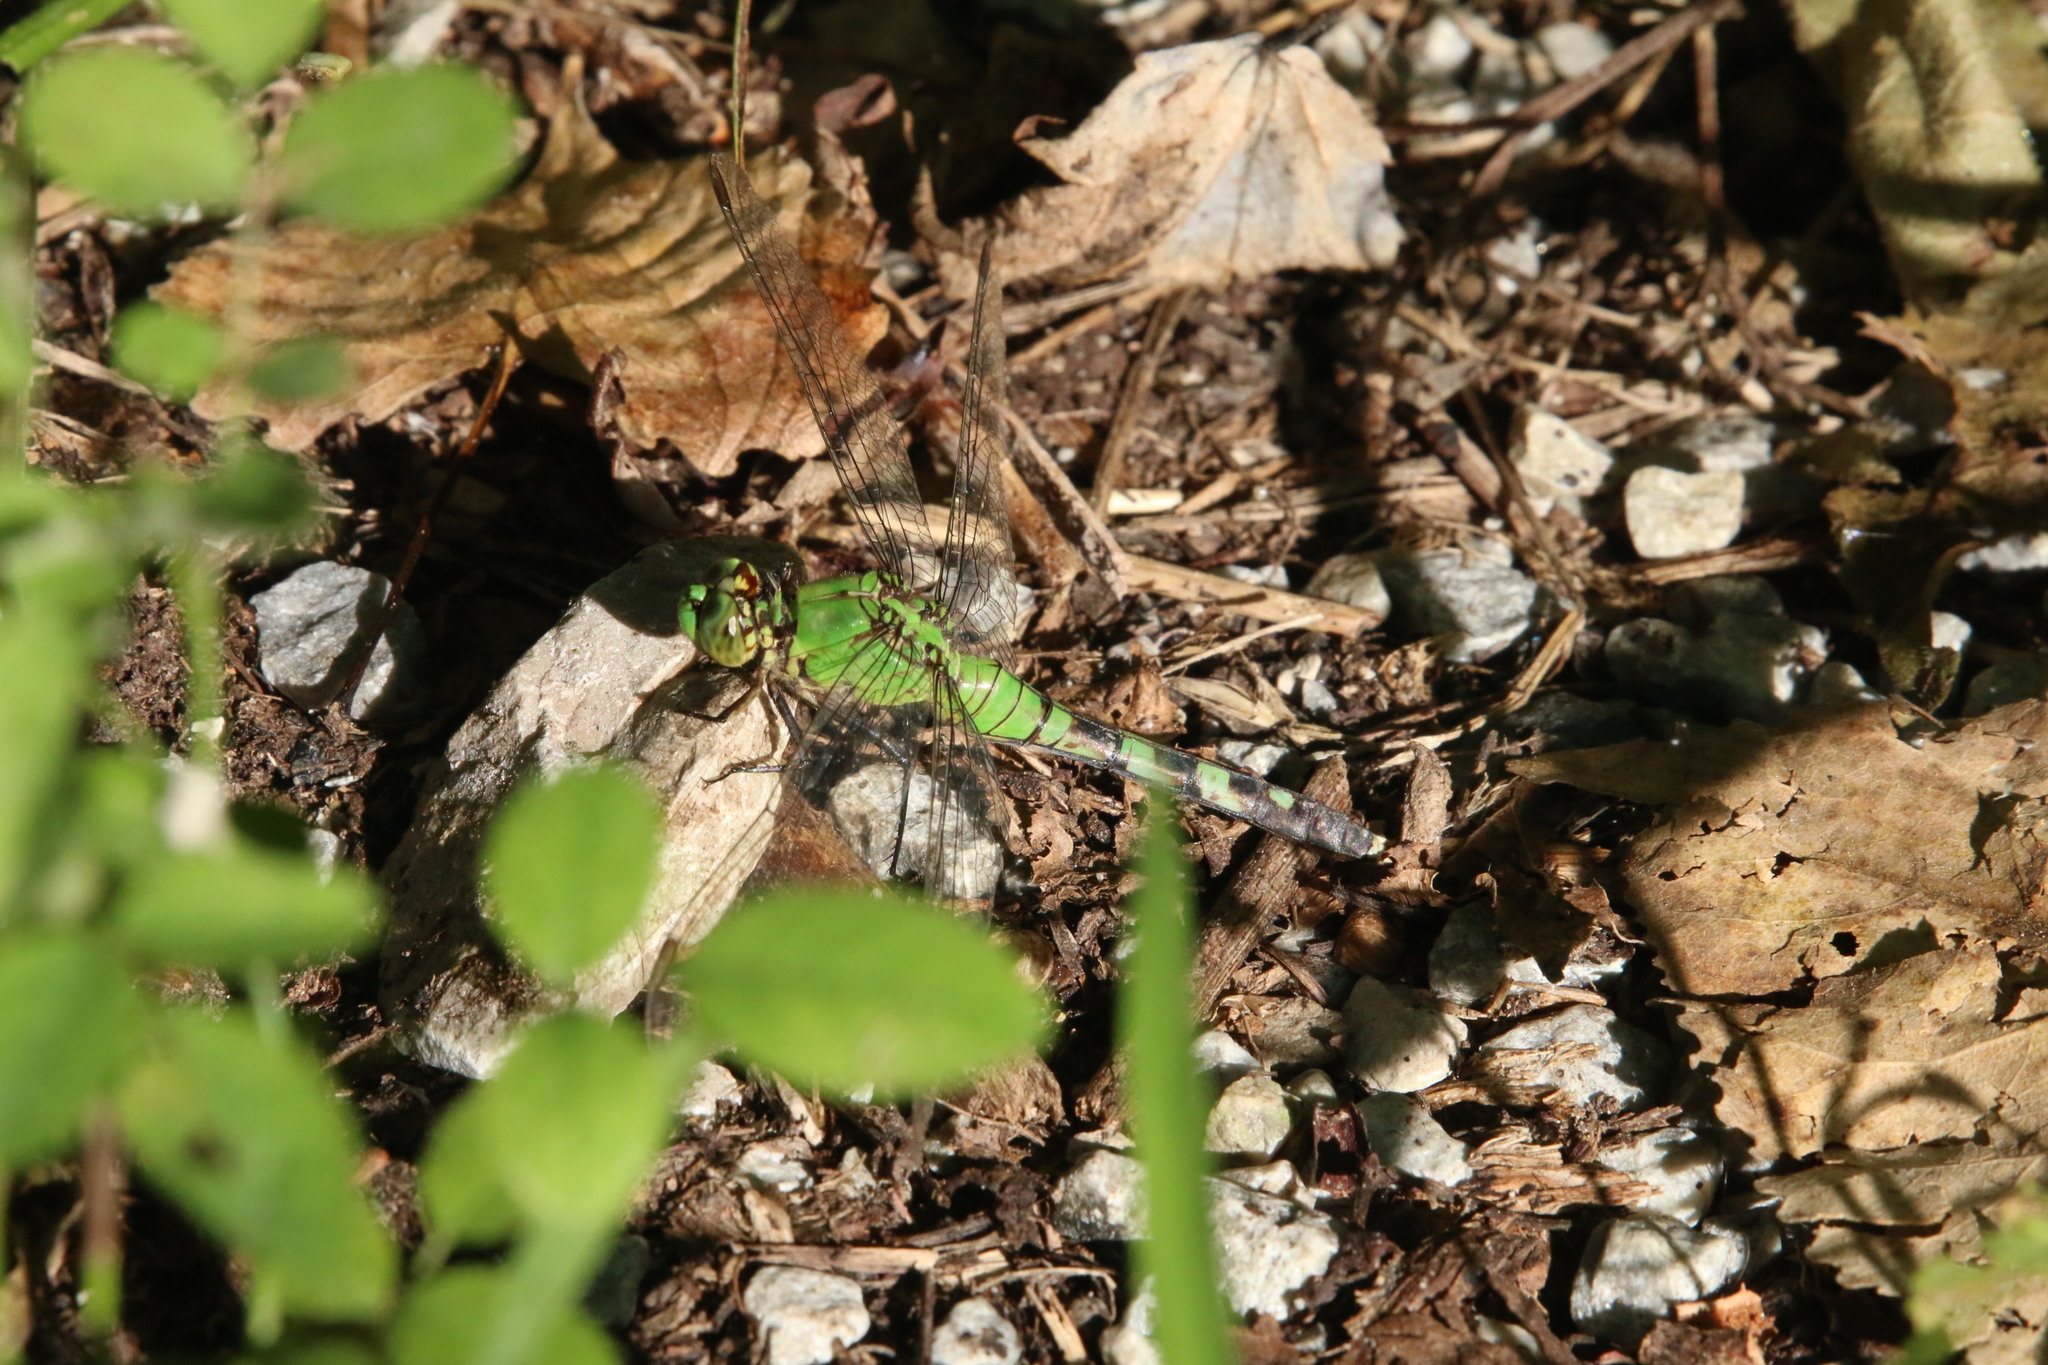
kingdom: Animalia
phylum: Arthropoda
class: Insecta
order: Odonata
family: Libellulidae
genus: Erythemis
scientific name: Erythemis simplicicollis
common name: Eastern pondhawk
